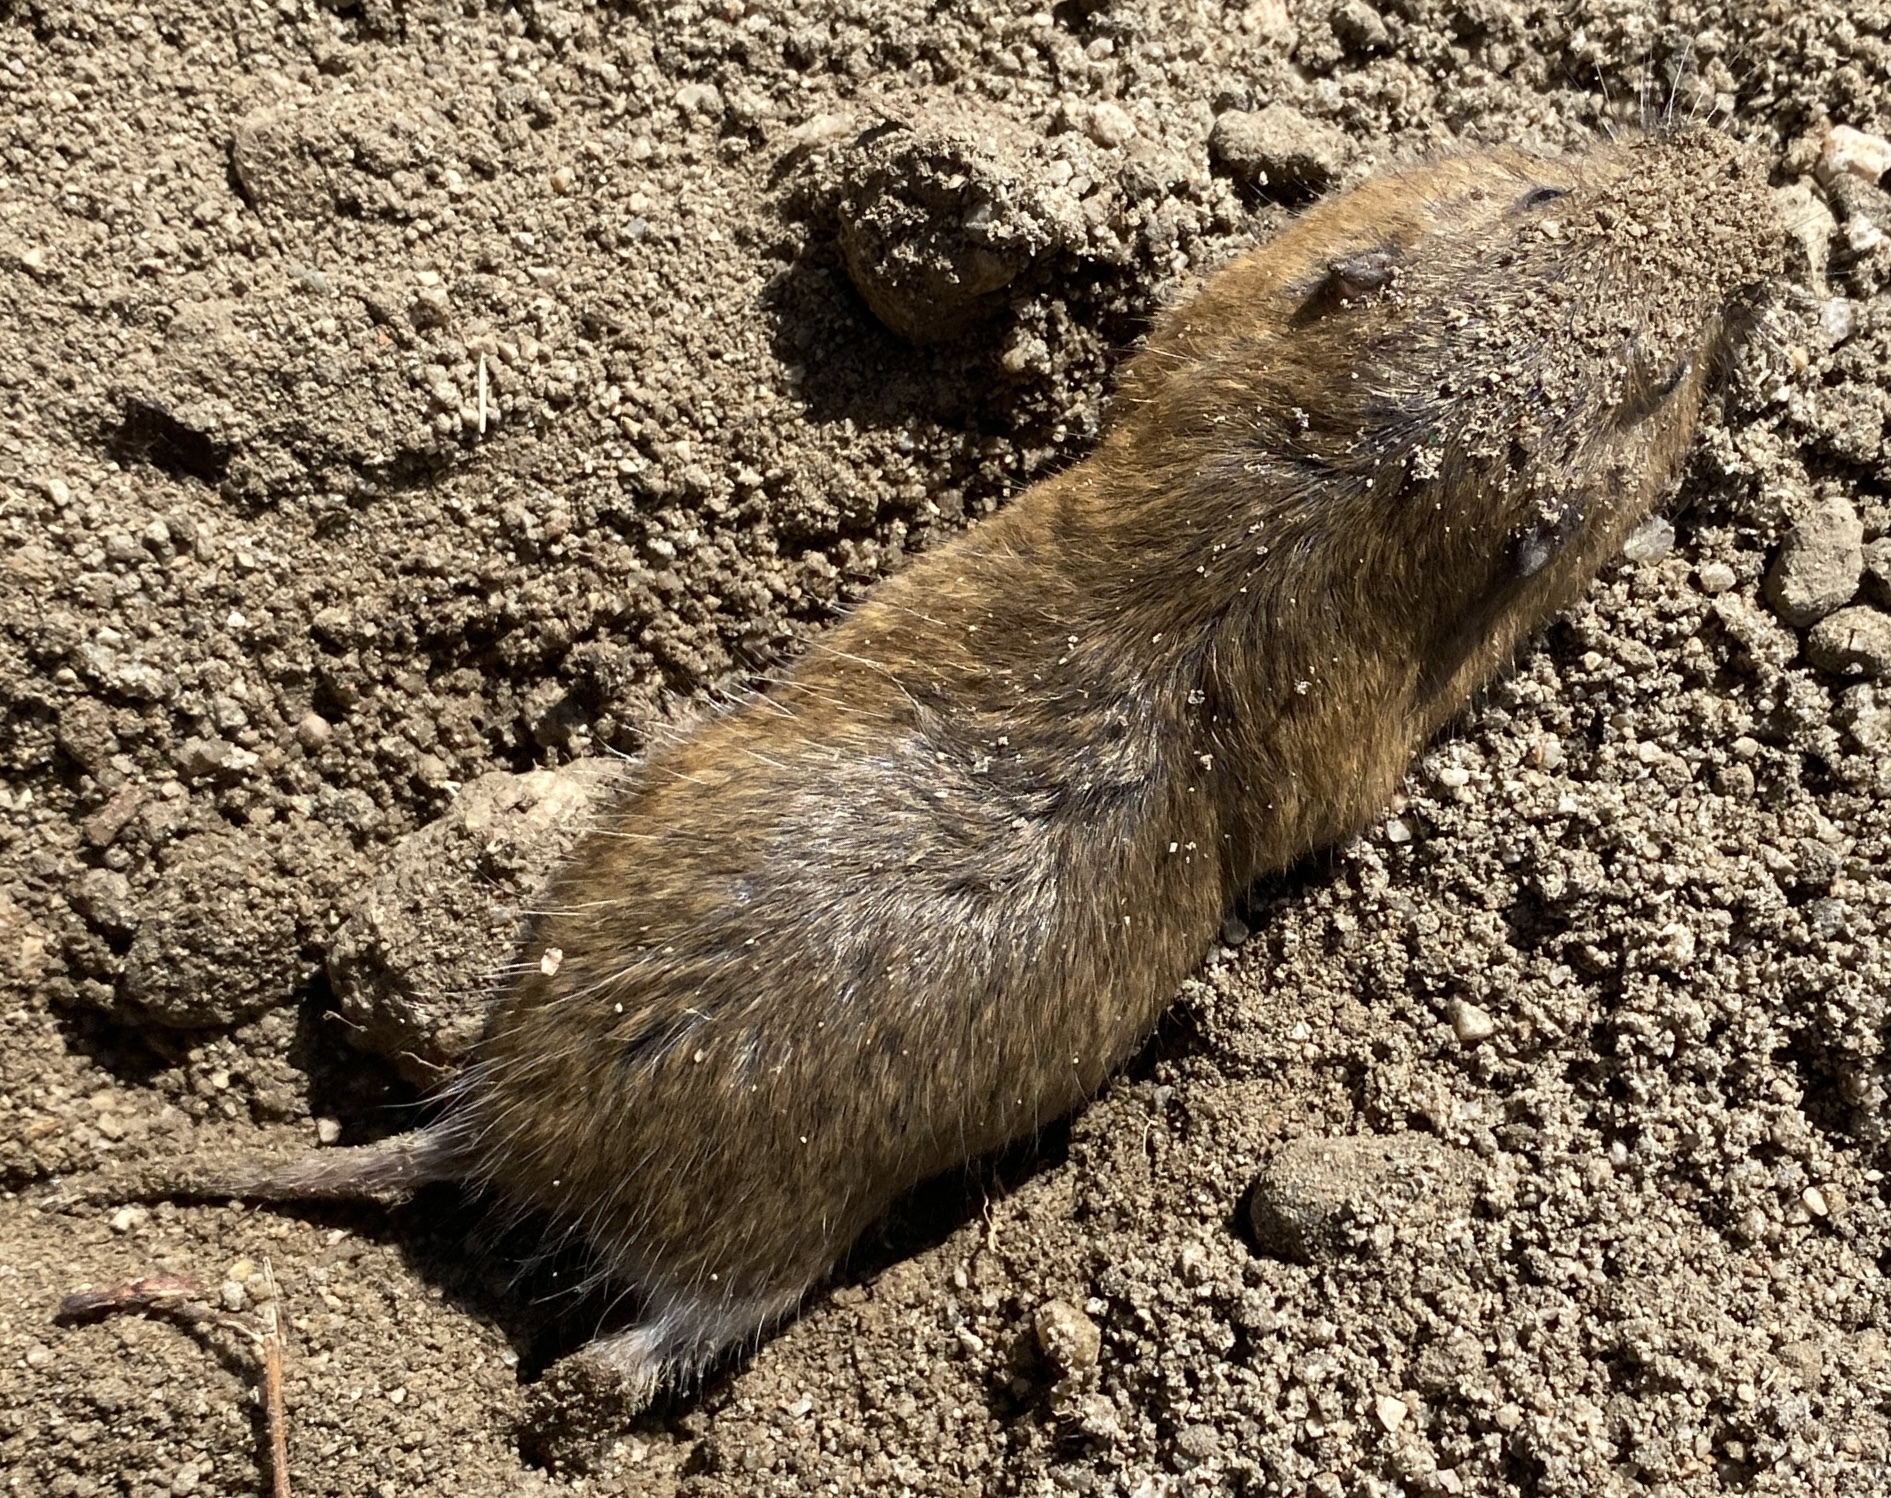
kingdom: Animalia
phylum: Chordata
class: Mammalia
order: Rodentia
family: Geomyidae
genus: Thomomys
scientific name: Thomomys bottae
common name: Botta's pocket gopher
